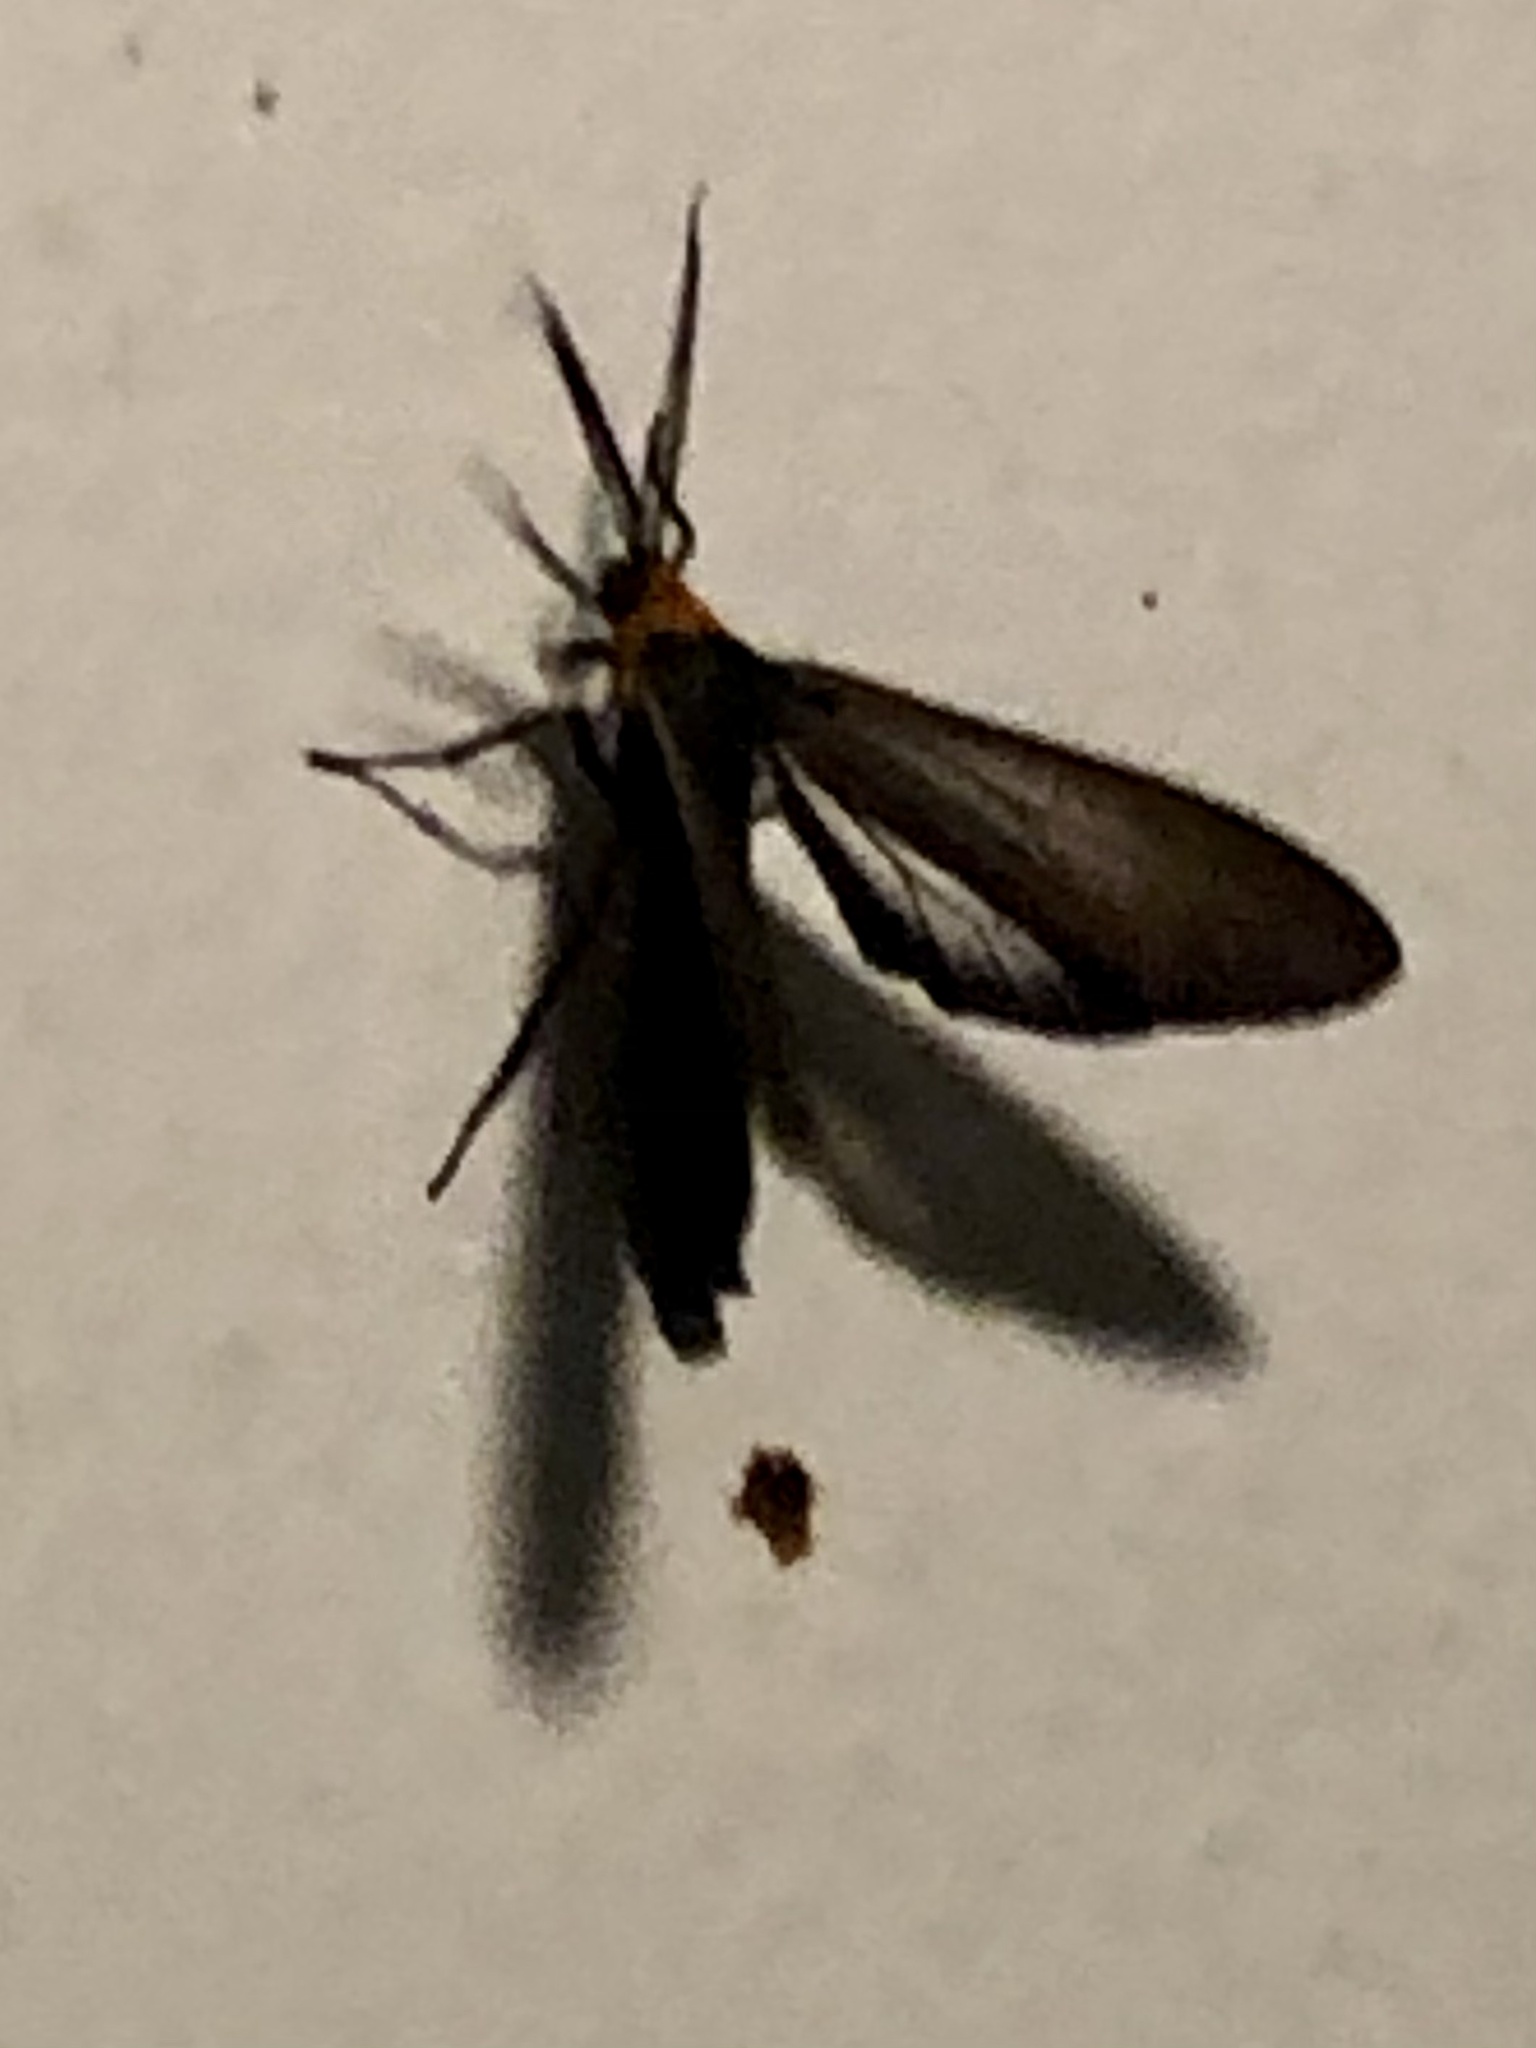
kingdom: Animalia
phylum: Arthropoda
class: Insecta
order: Lepidoptera
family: Erebidae
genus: Cisseps
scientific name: Cisseps fulvicollis
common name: Yellow-collared scape moth
